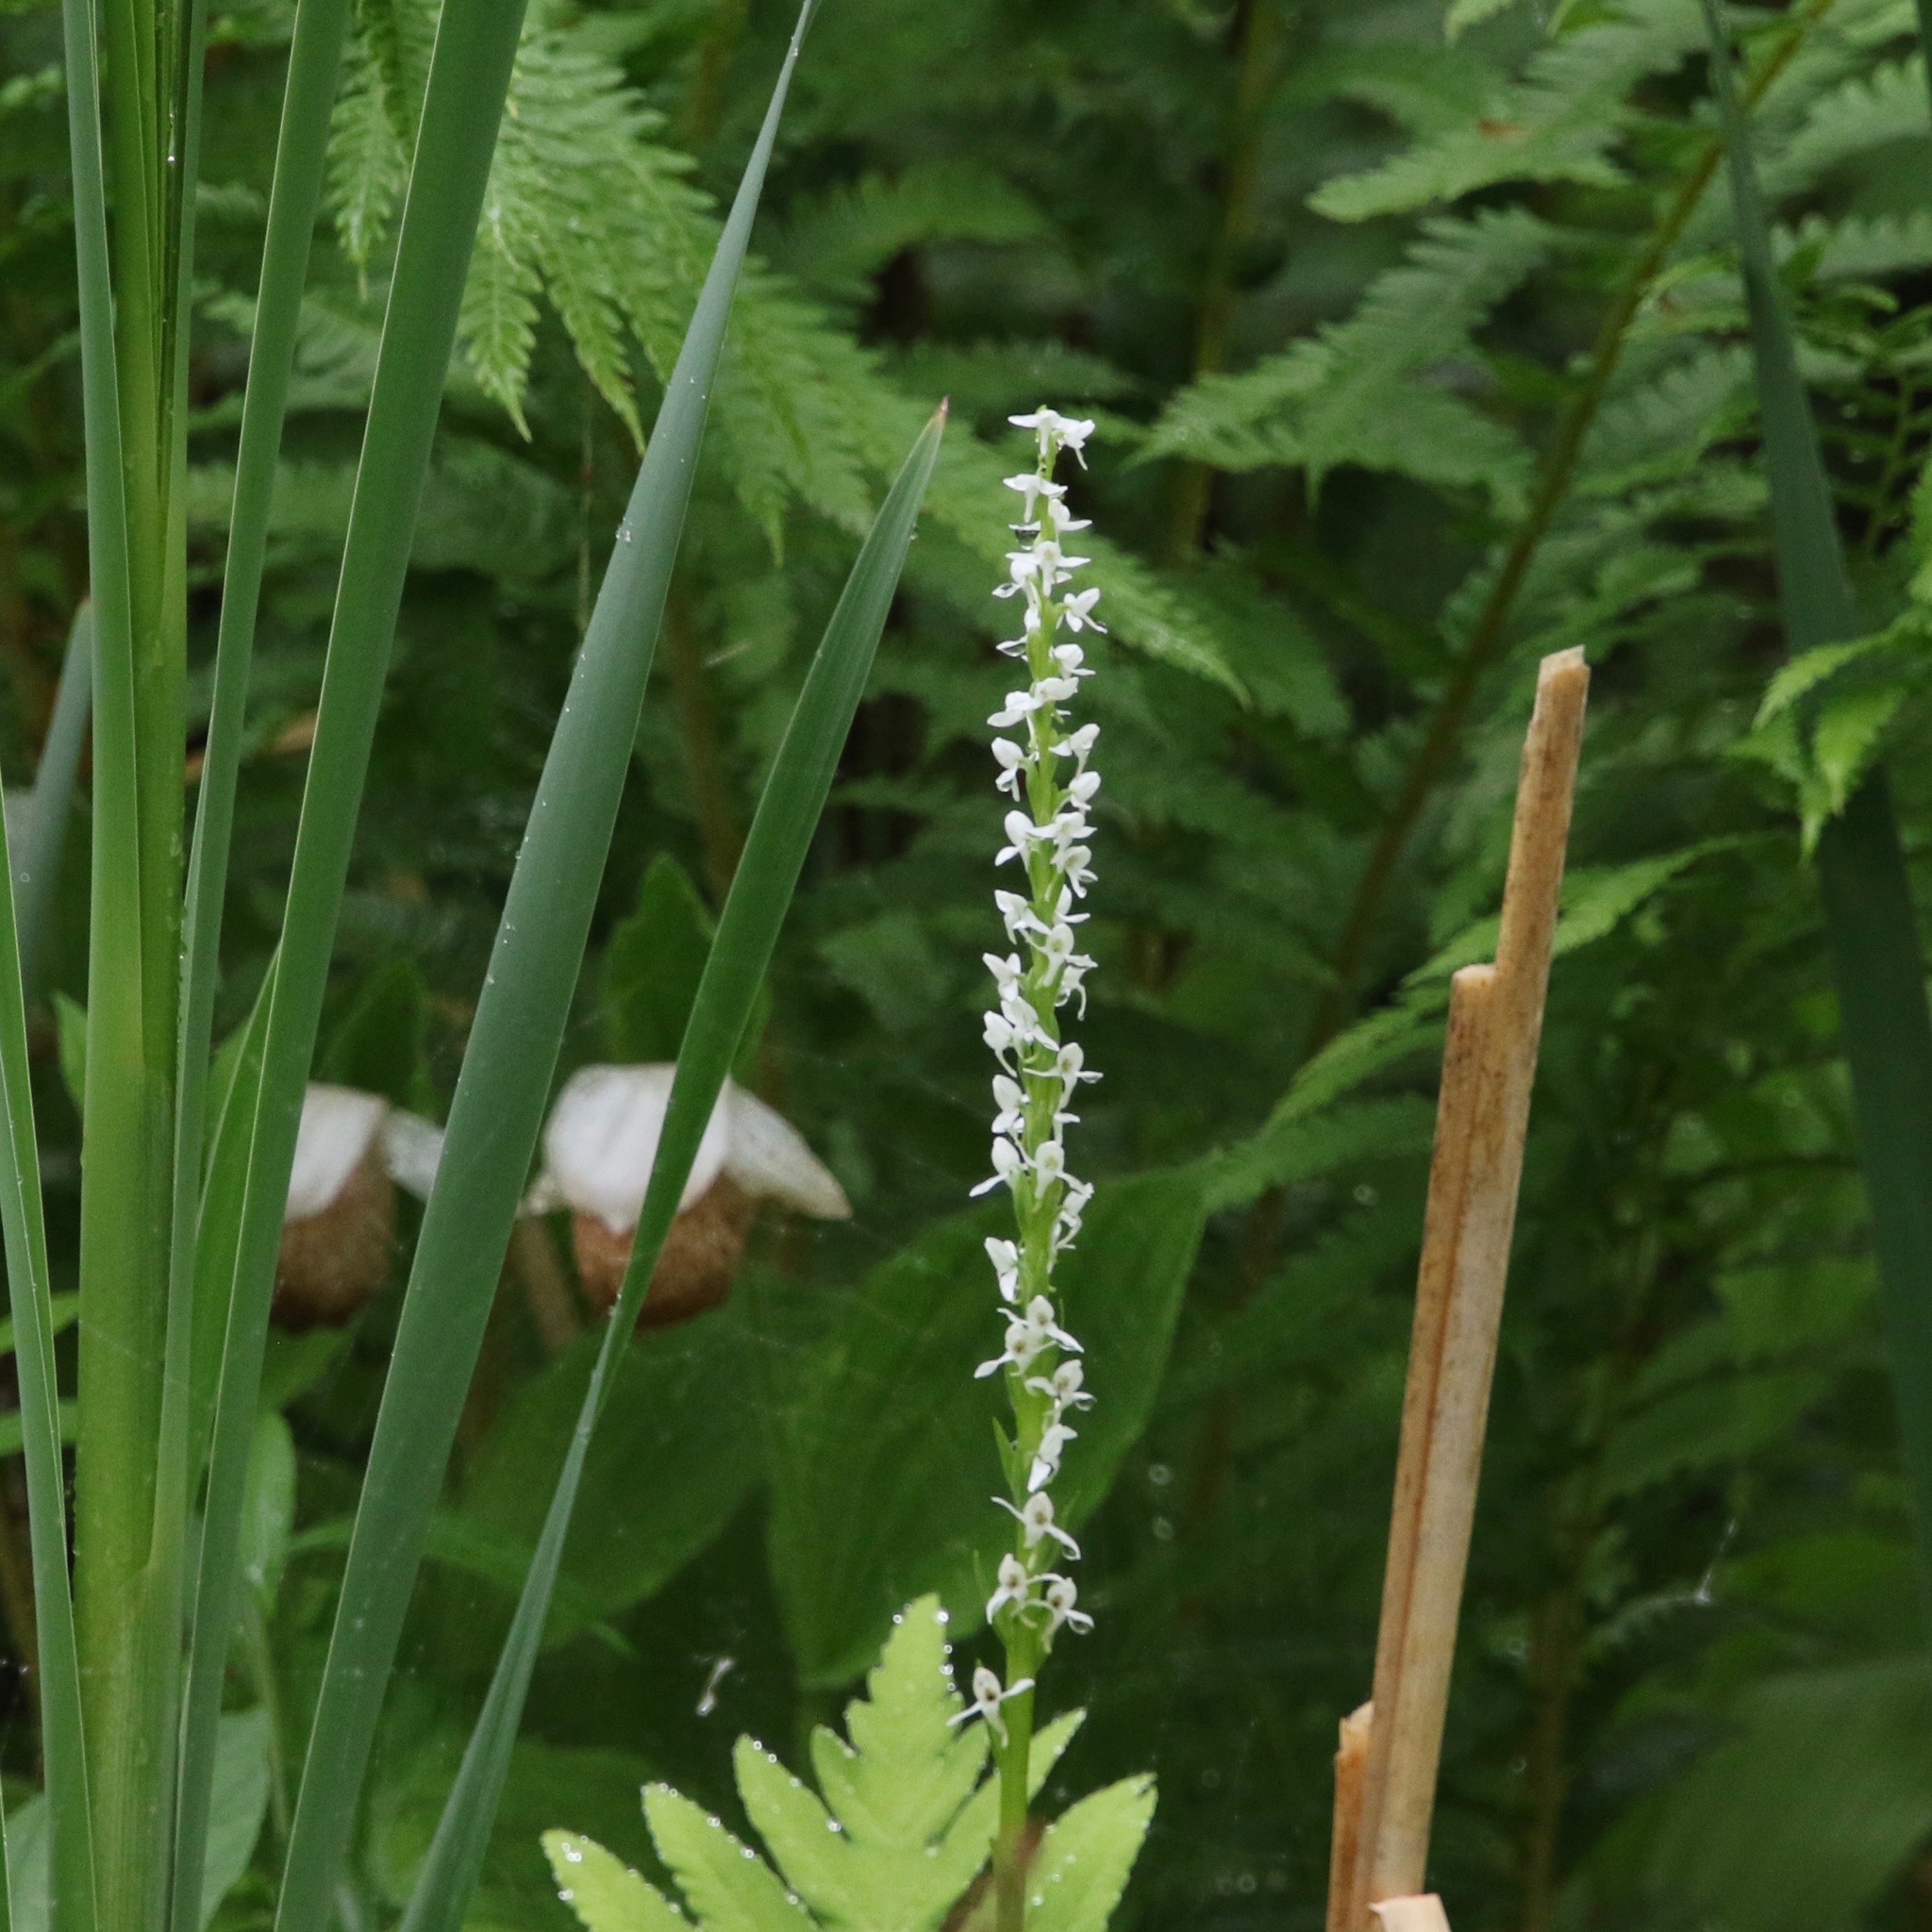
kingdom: Plantae
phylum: Tracheophyta
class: Liliopsida
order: Asparagales
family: Orchidaceae
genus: Platanthera
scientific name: Platanthera dilatata
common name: Bog candles
